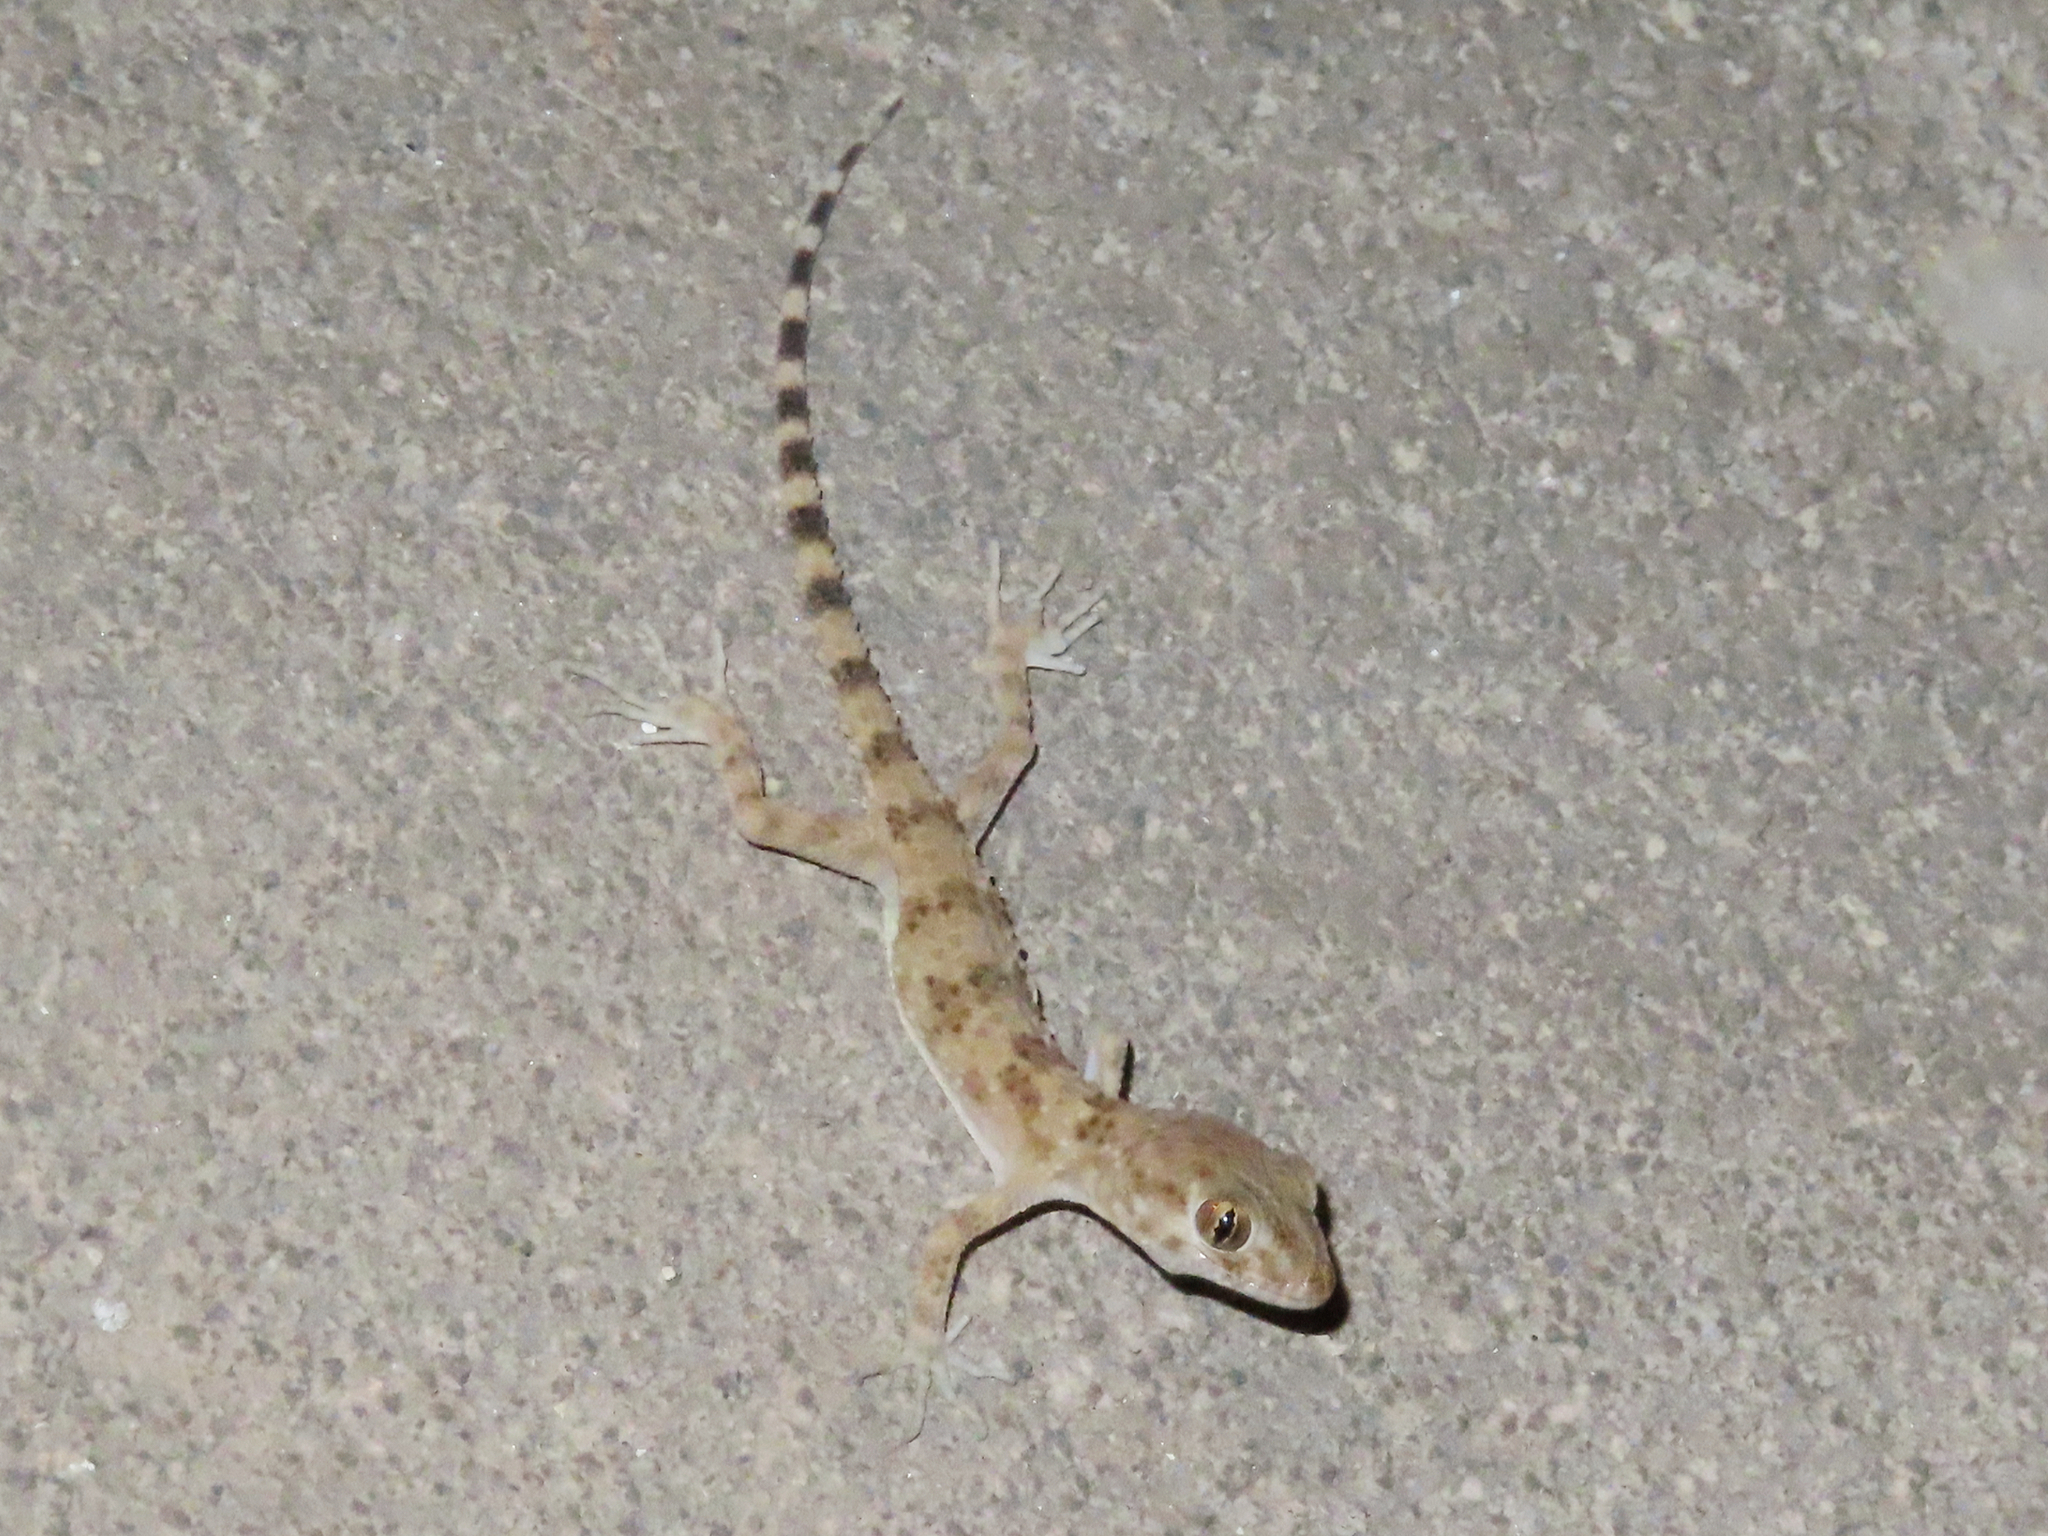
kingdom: Animalia
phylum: Chordata
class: Squamata
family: Gekkonidae
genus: Tenuidactylus
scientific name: Tenuidactylus caspius
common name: Caspian bent-toed gecko
